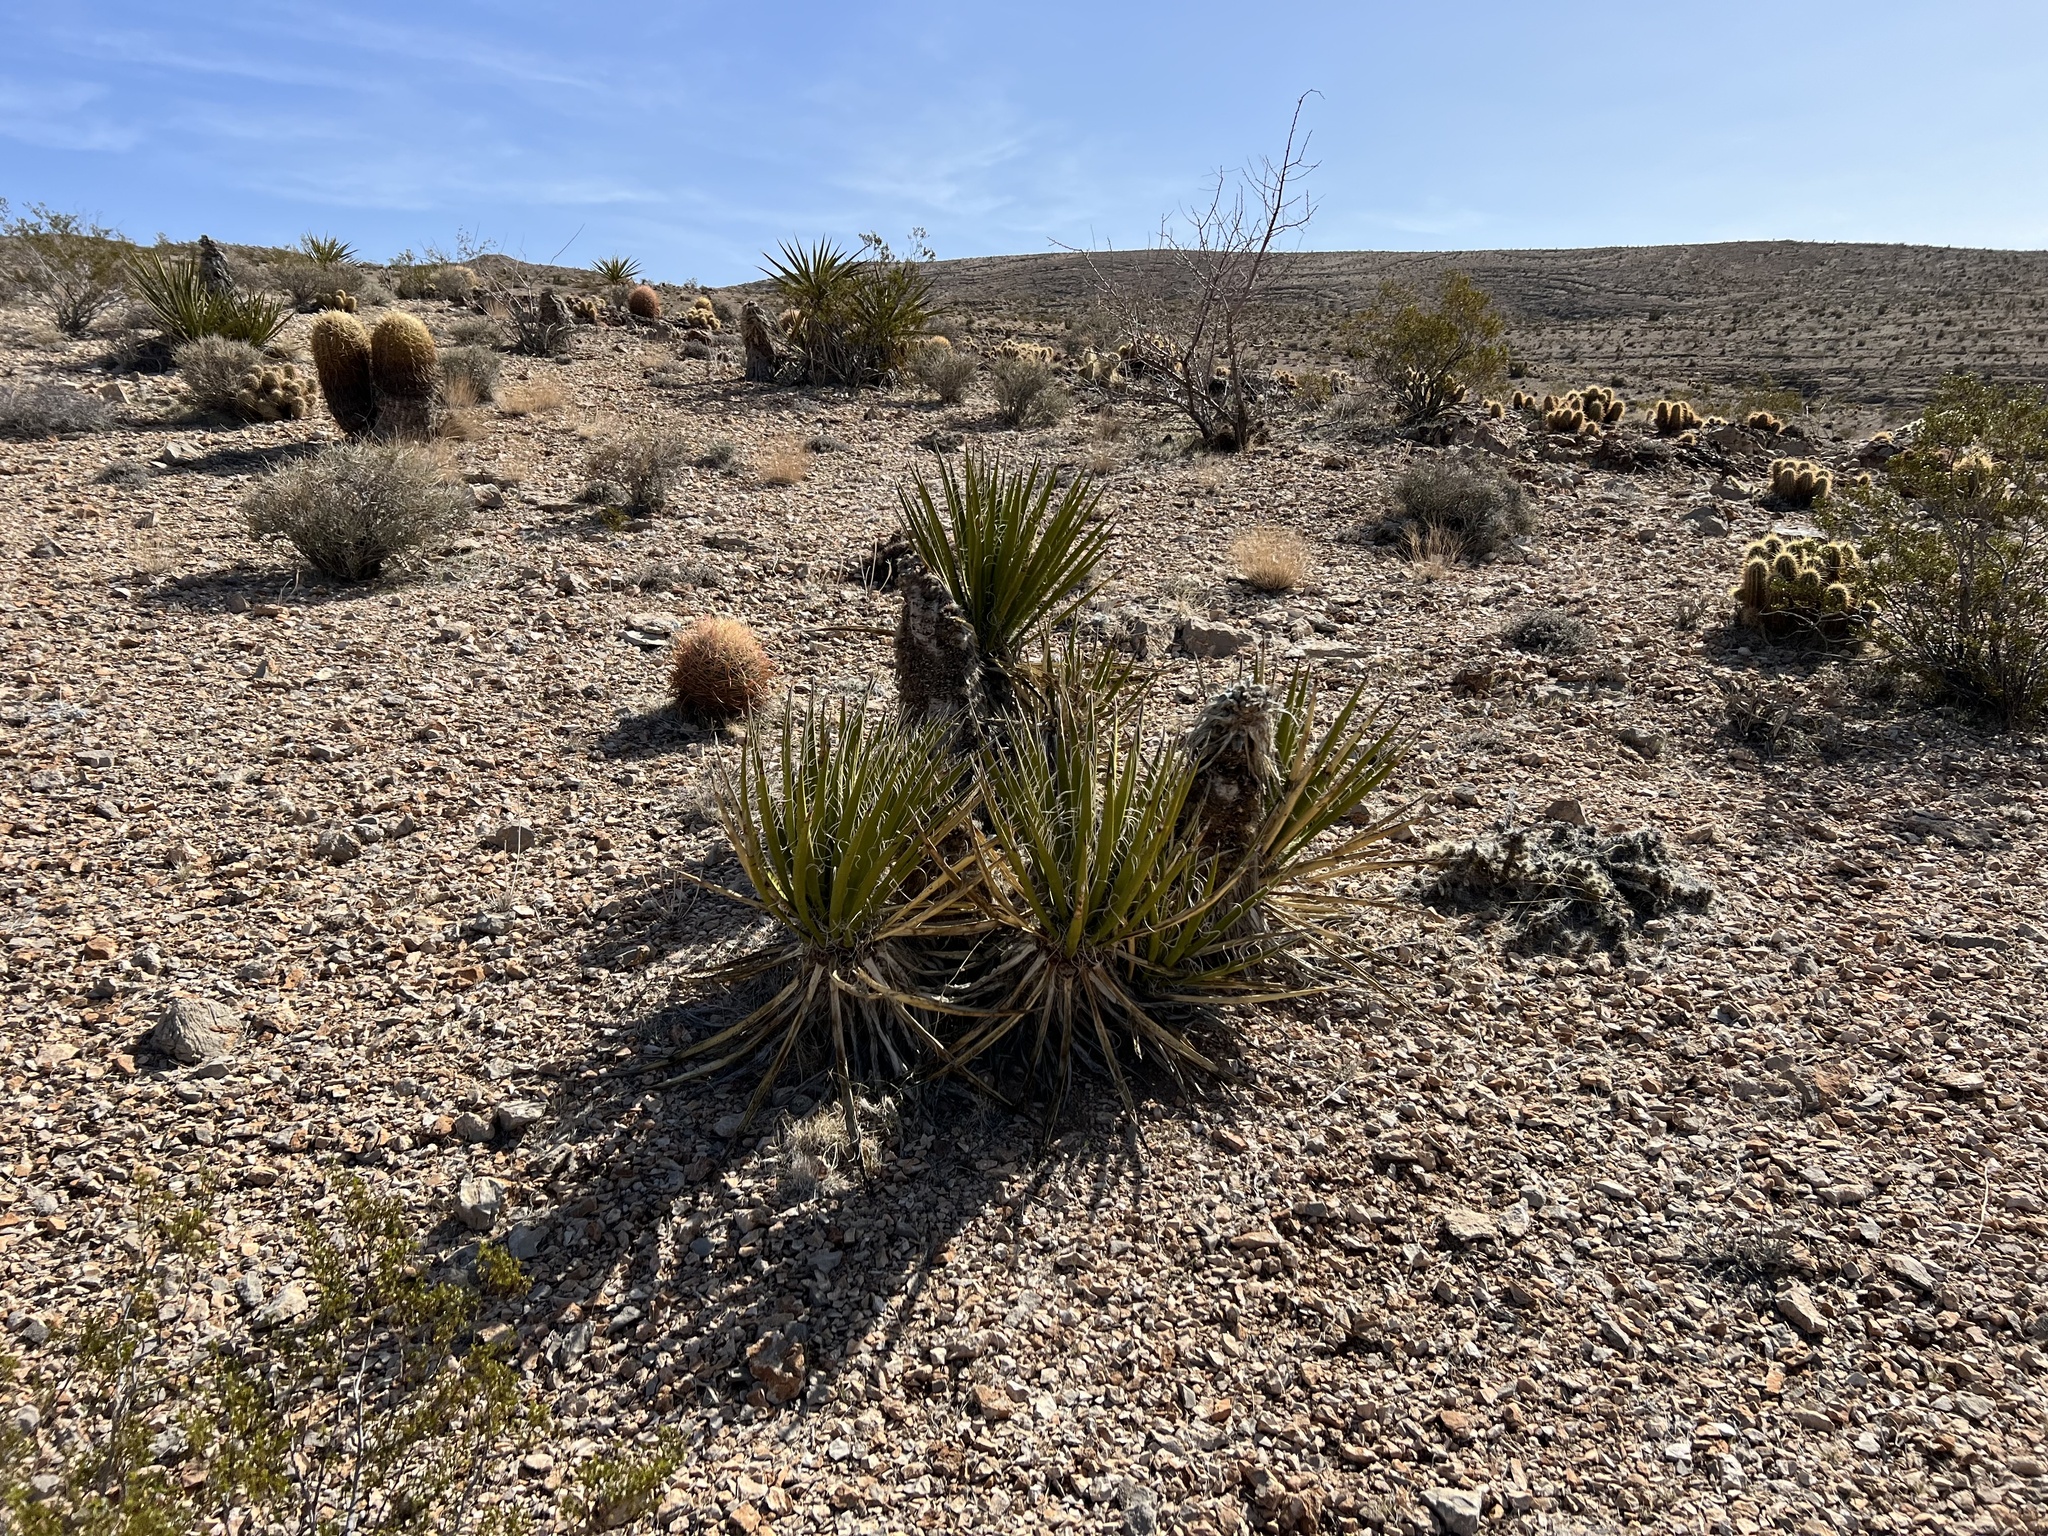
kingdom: Plantae
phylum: Tracheophyta
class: Liliopsida
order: Asparagales
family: Asparagaceae
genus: Yucca
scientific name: Yucca schidigera
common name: Mojave yucca
